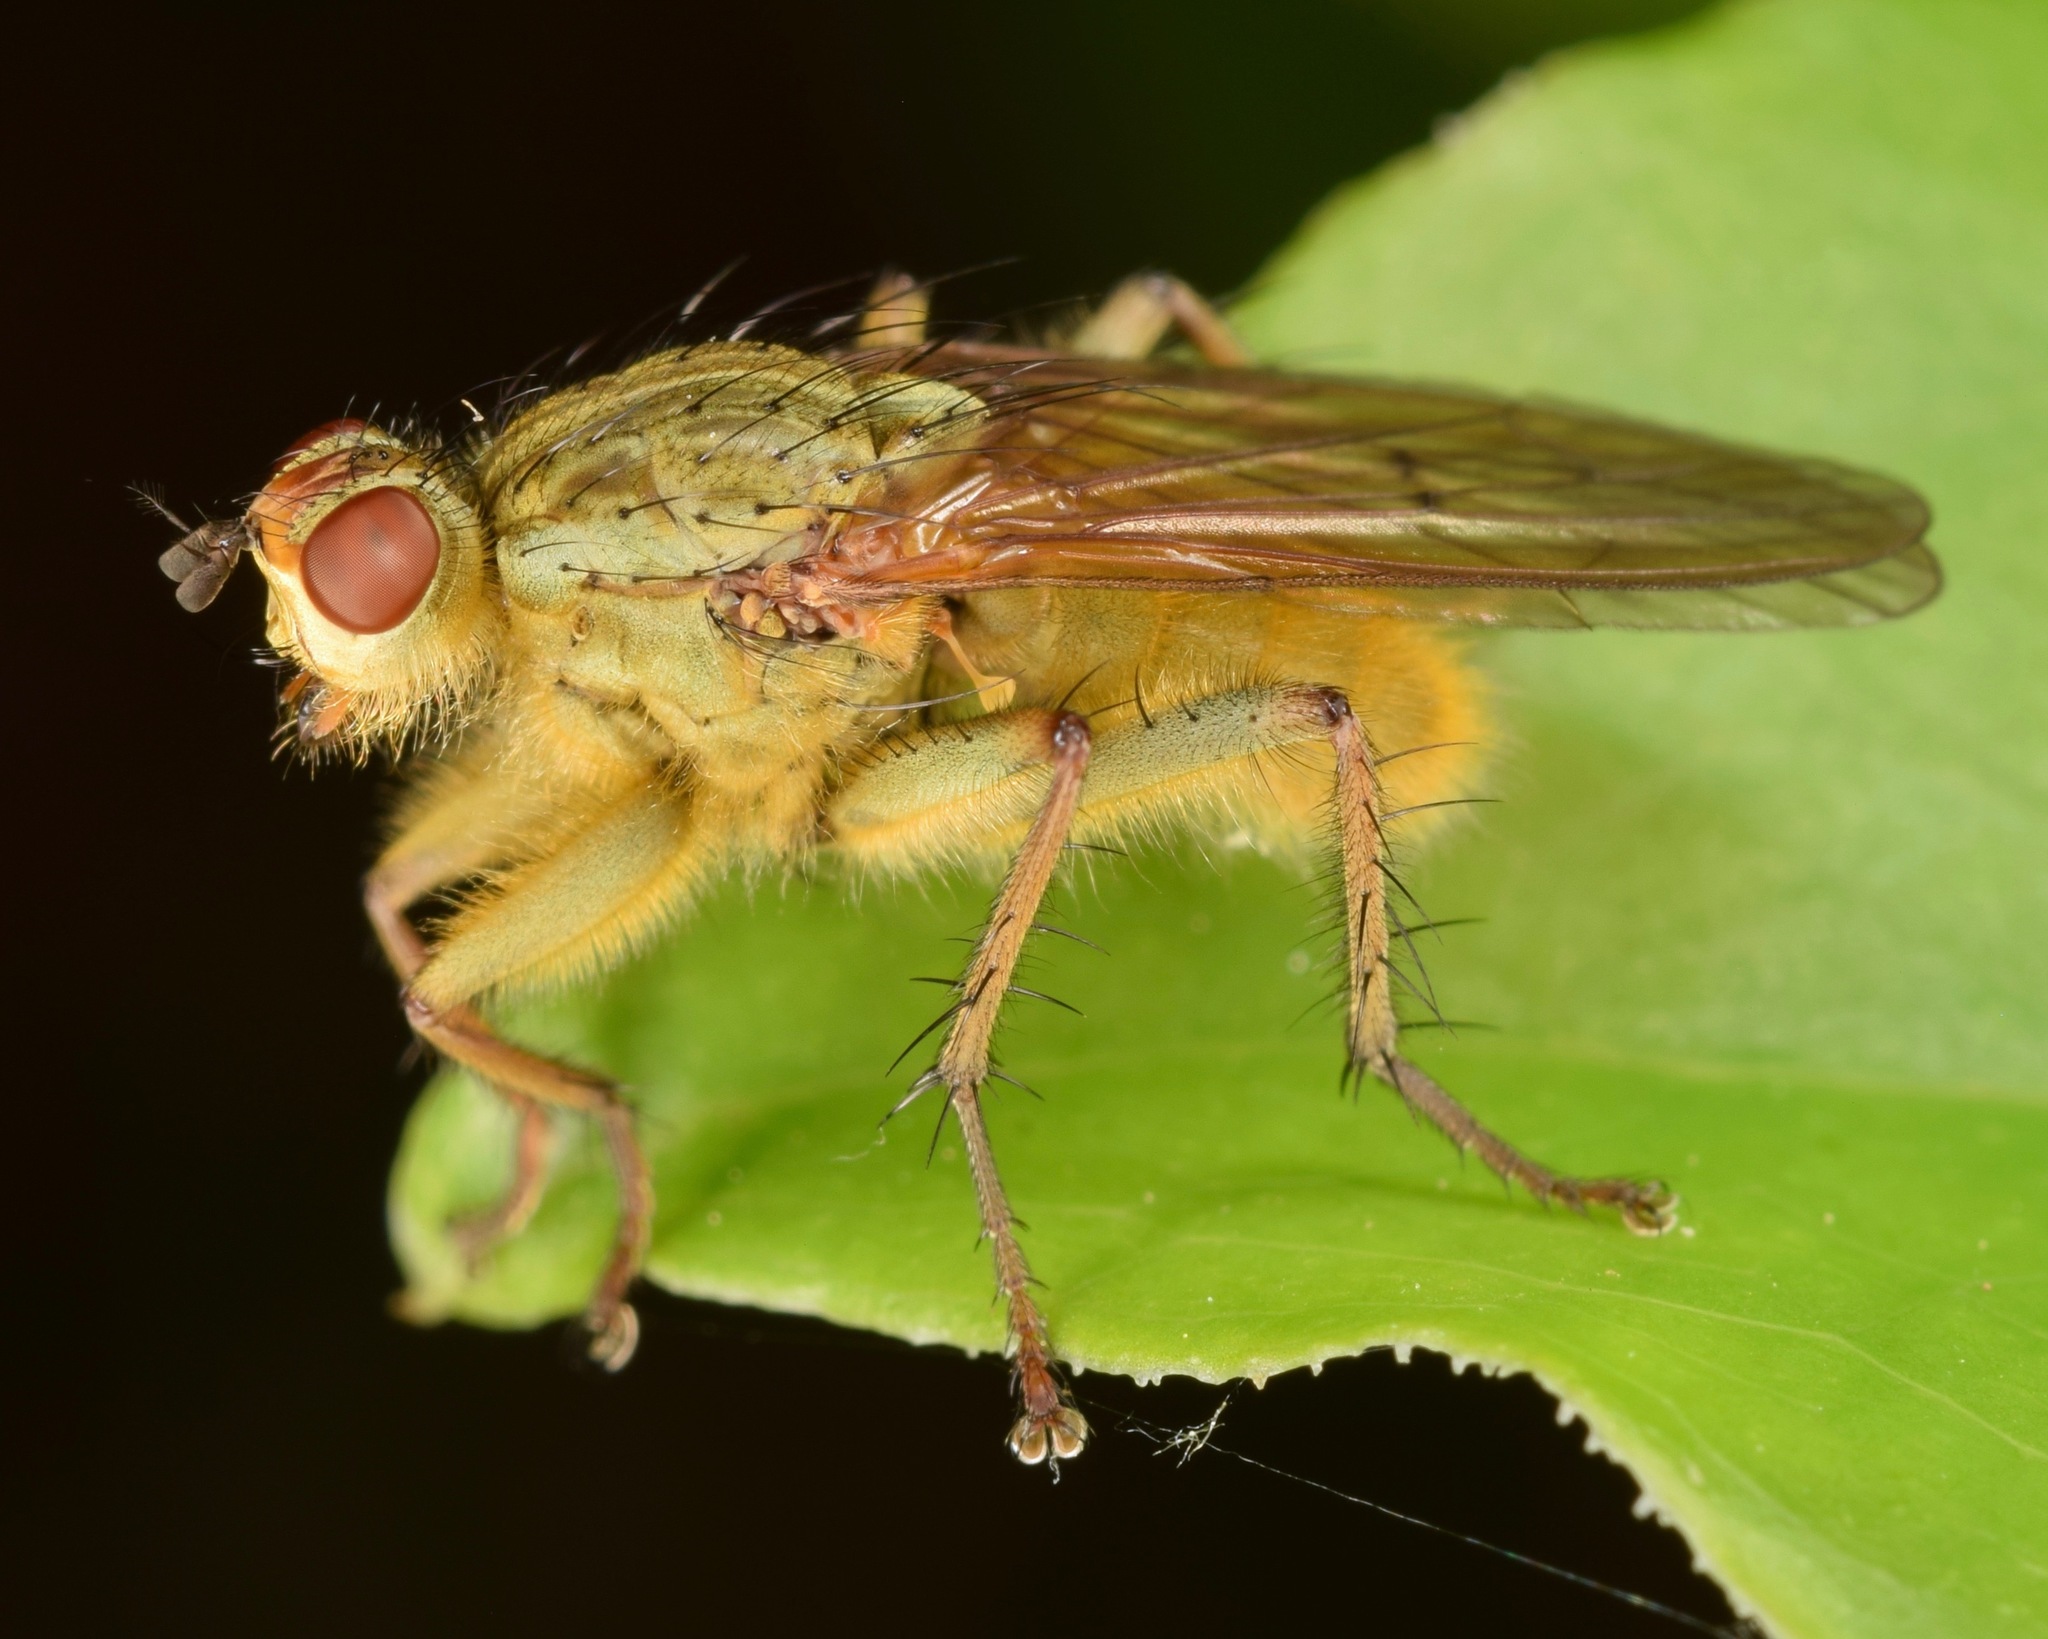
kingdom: Animalia
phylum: Arthropoda
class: Insecta
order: Diptera
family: Scathophagidae
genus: Scathophaga
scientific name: Scathophaga stercoraria
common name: Yellow dung fly
